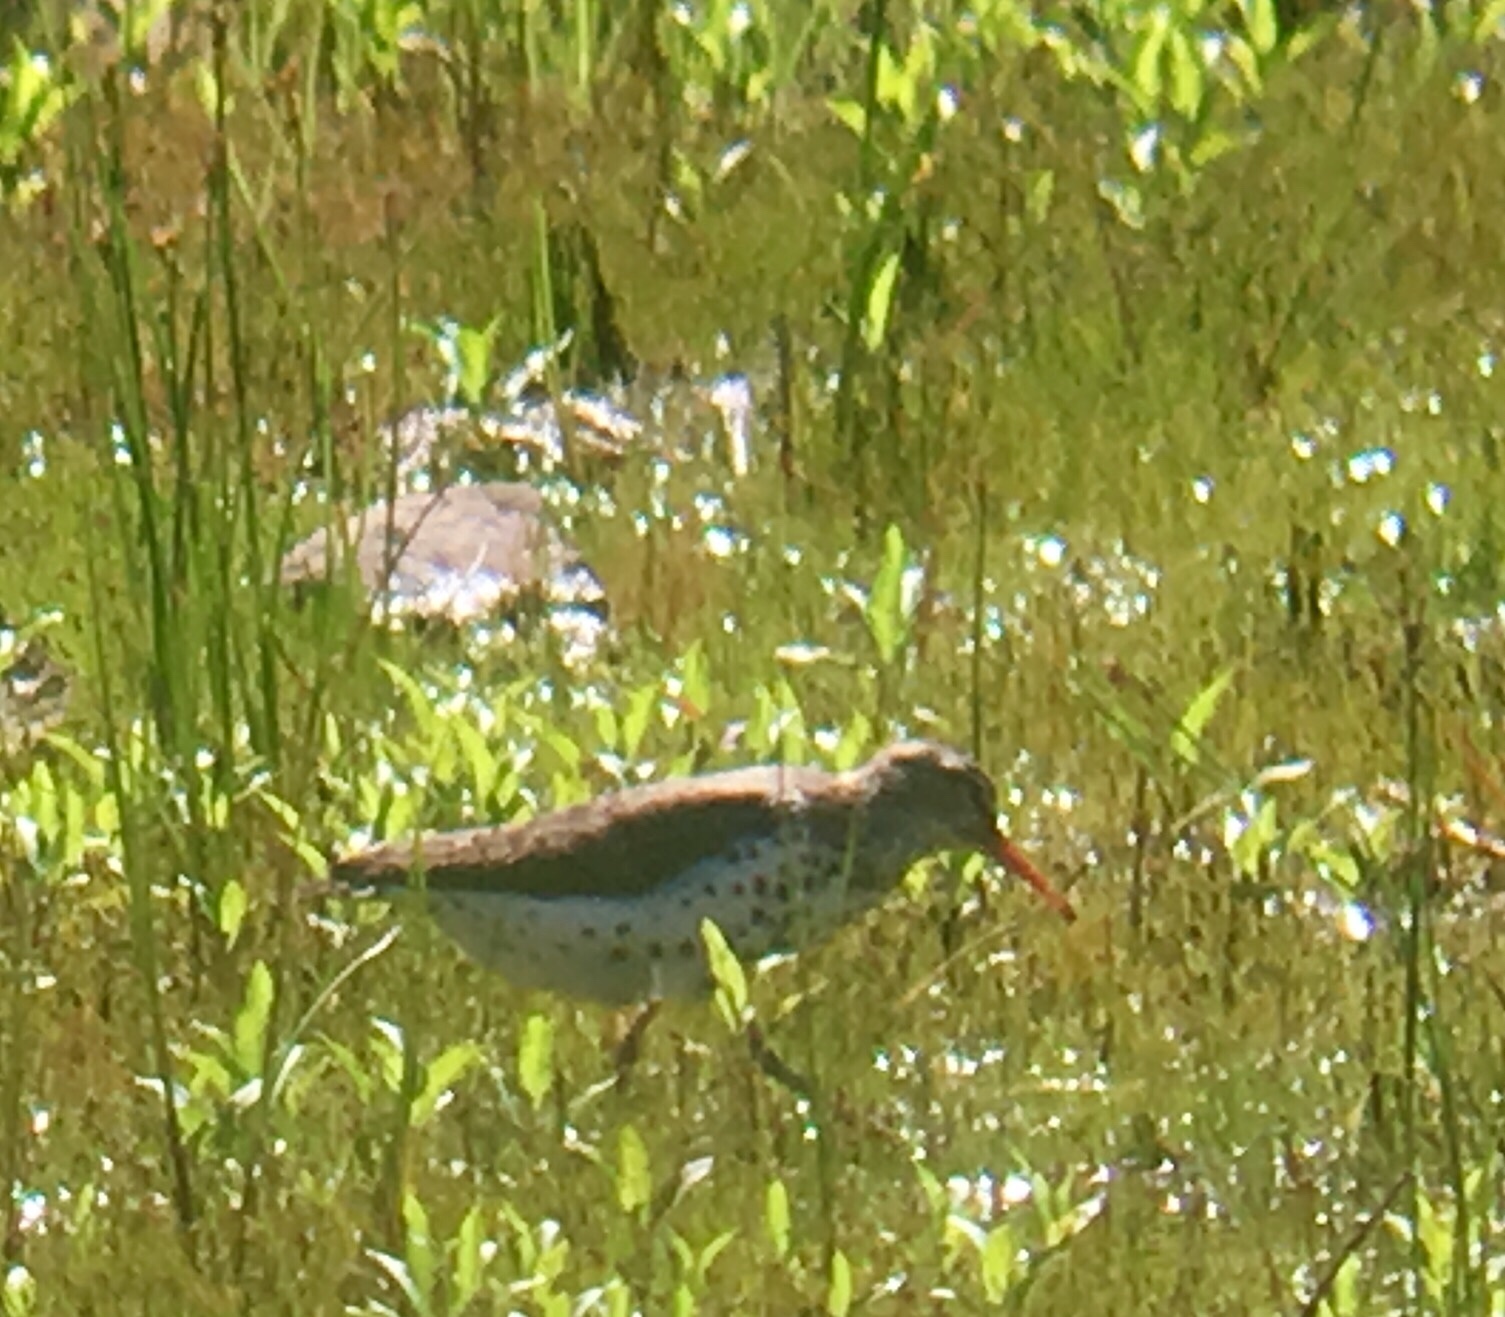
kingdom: Animalia
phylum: Chordata
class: Aves
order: Charadriiformes
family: Scolopacidae
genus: Actitis
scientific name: Actitis macularius
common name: Spotted sandpiper
